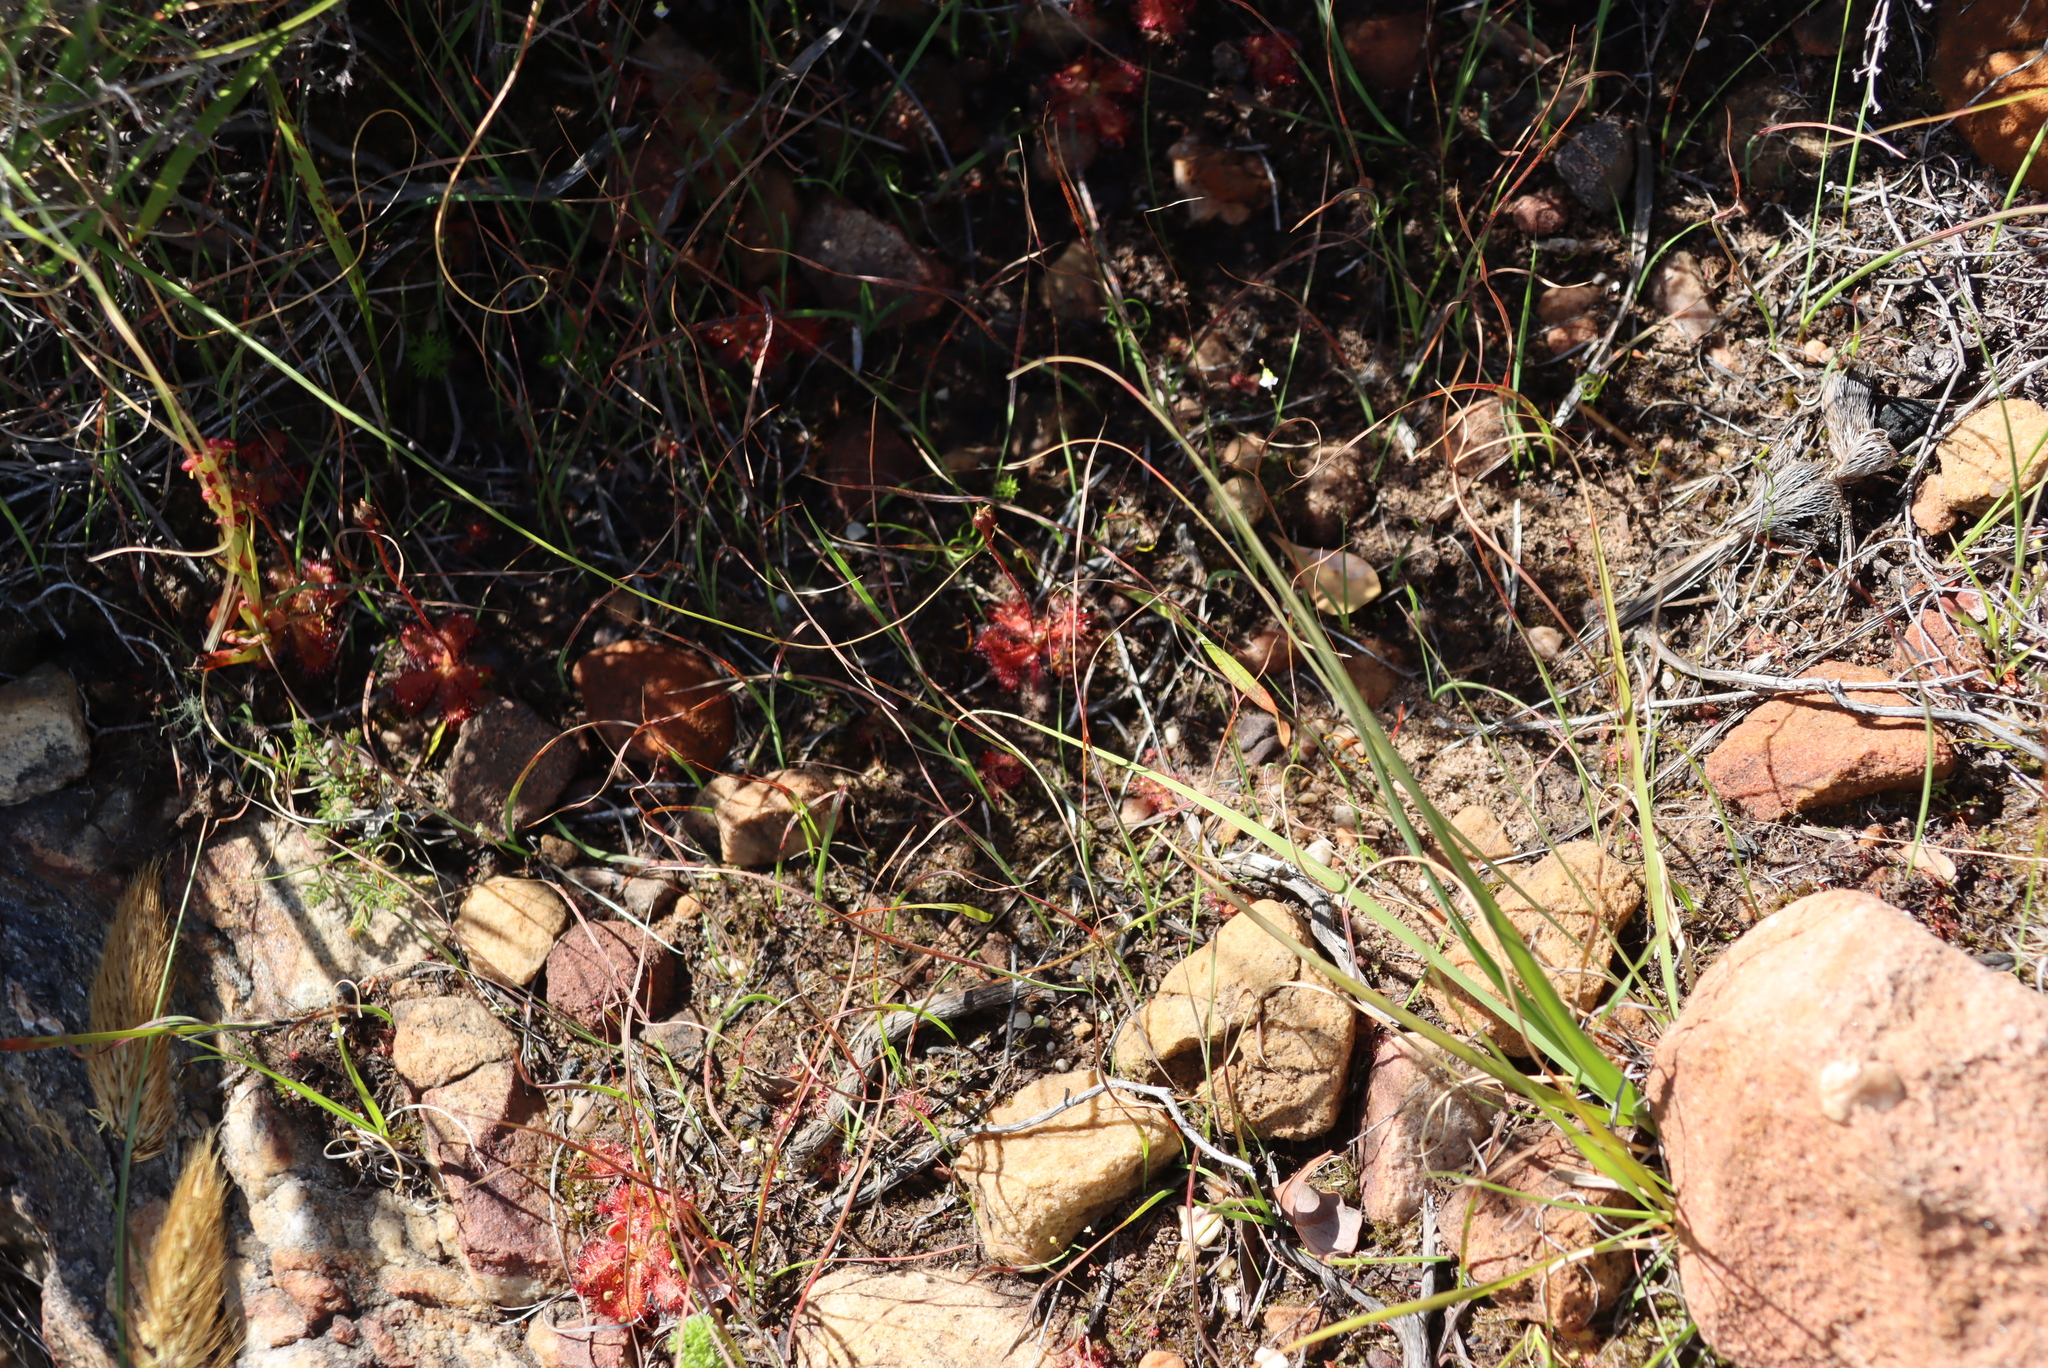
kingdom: Plantae
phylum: Tracheophyta
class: Magnoliopsida
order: Caryophyllales
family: Droseraceae
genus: Drosera
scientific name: Drosera trinervia
